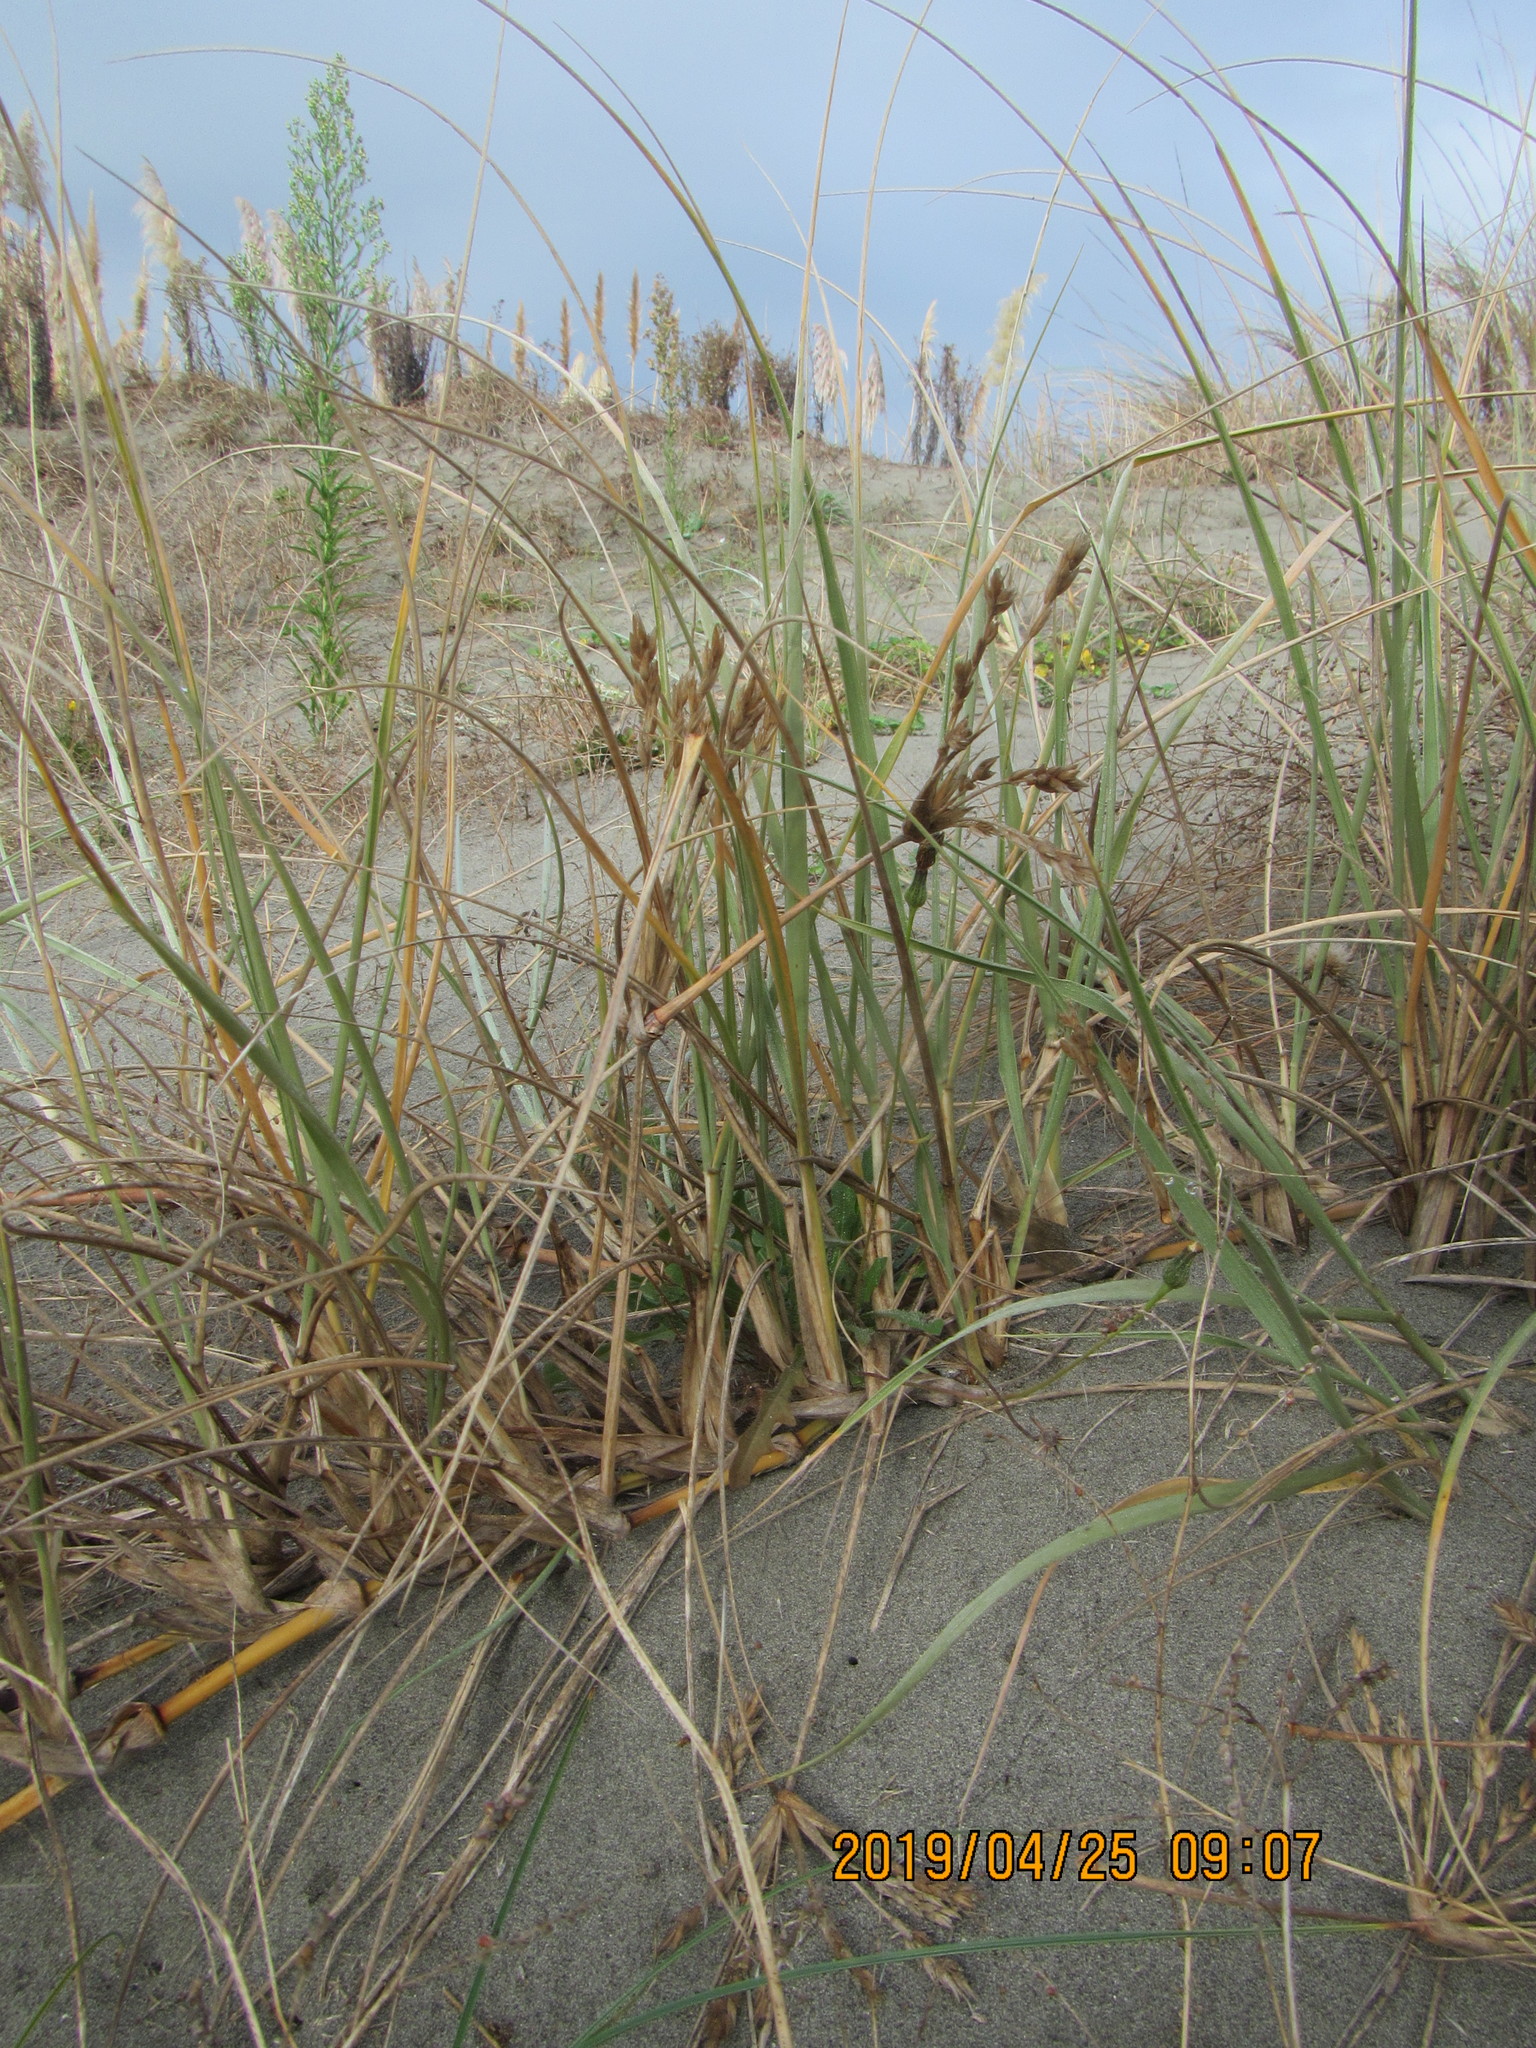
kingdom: Plantae
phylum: Tracheophyta
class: Liliopsida
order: Poales
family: Poaceae
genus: Spinifex
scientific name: Spinifex sericeus
